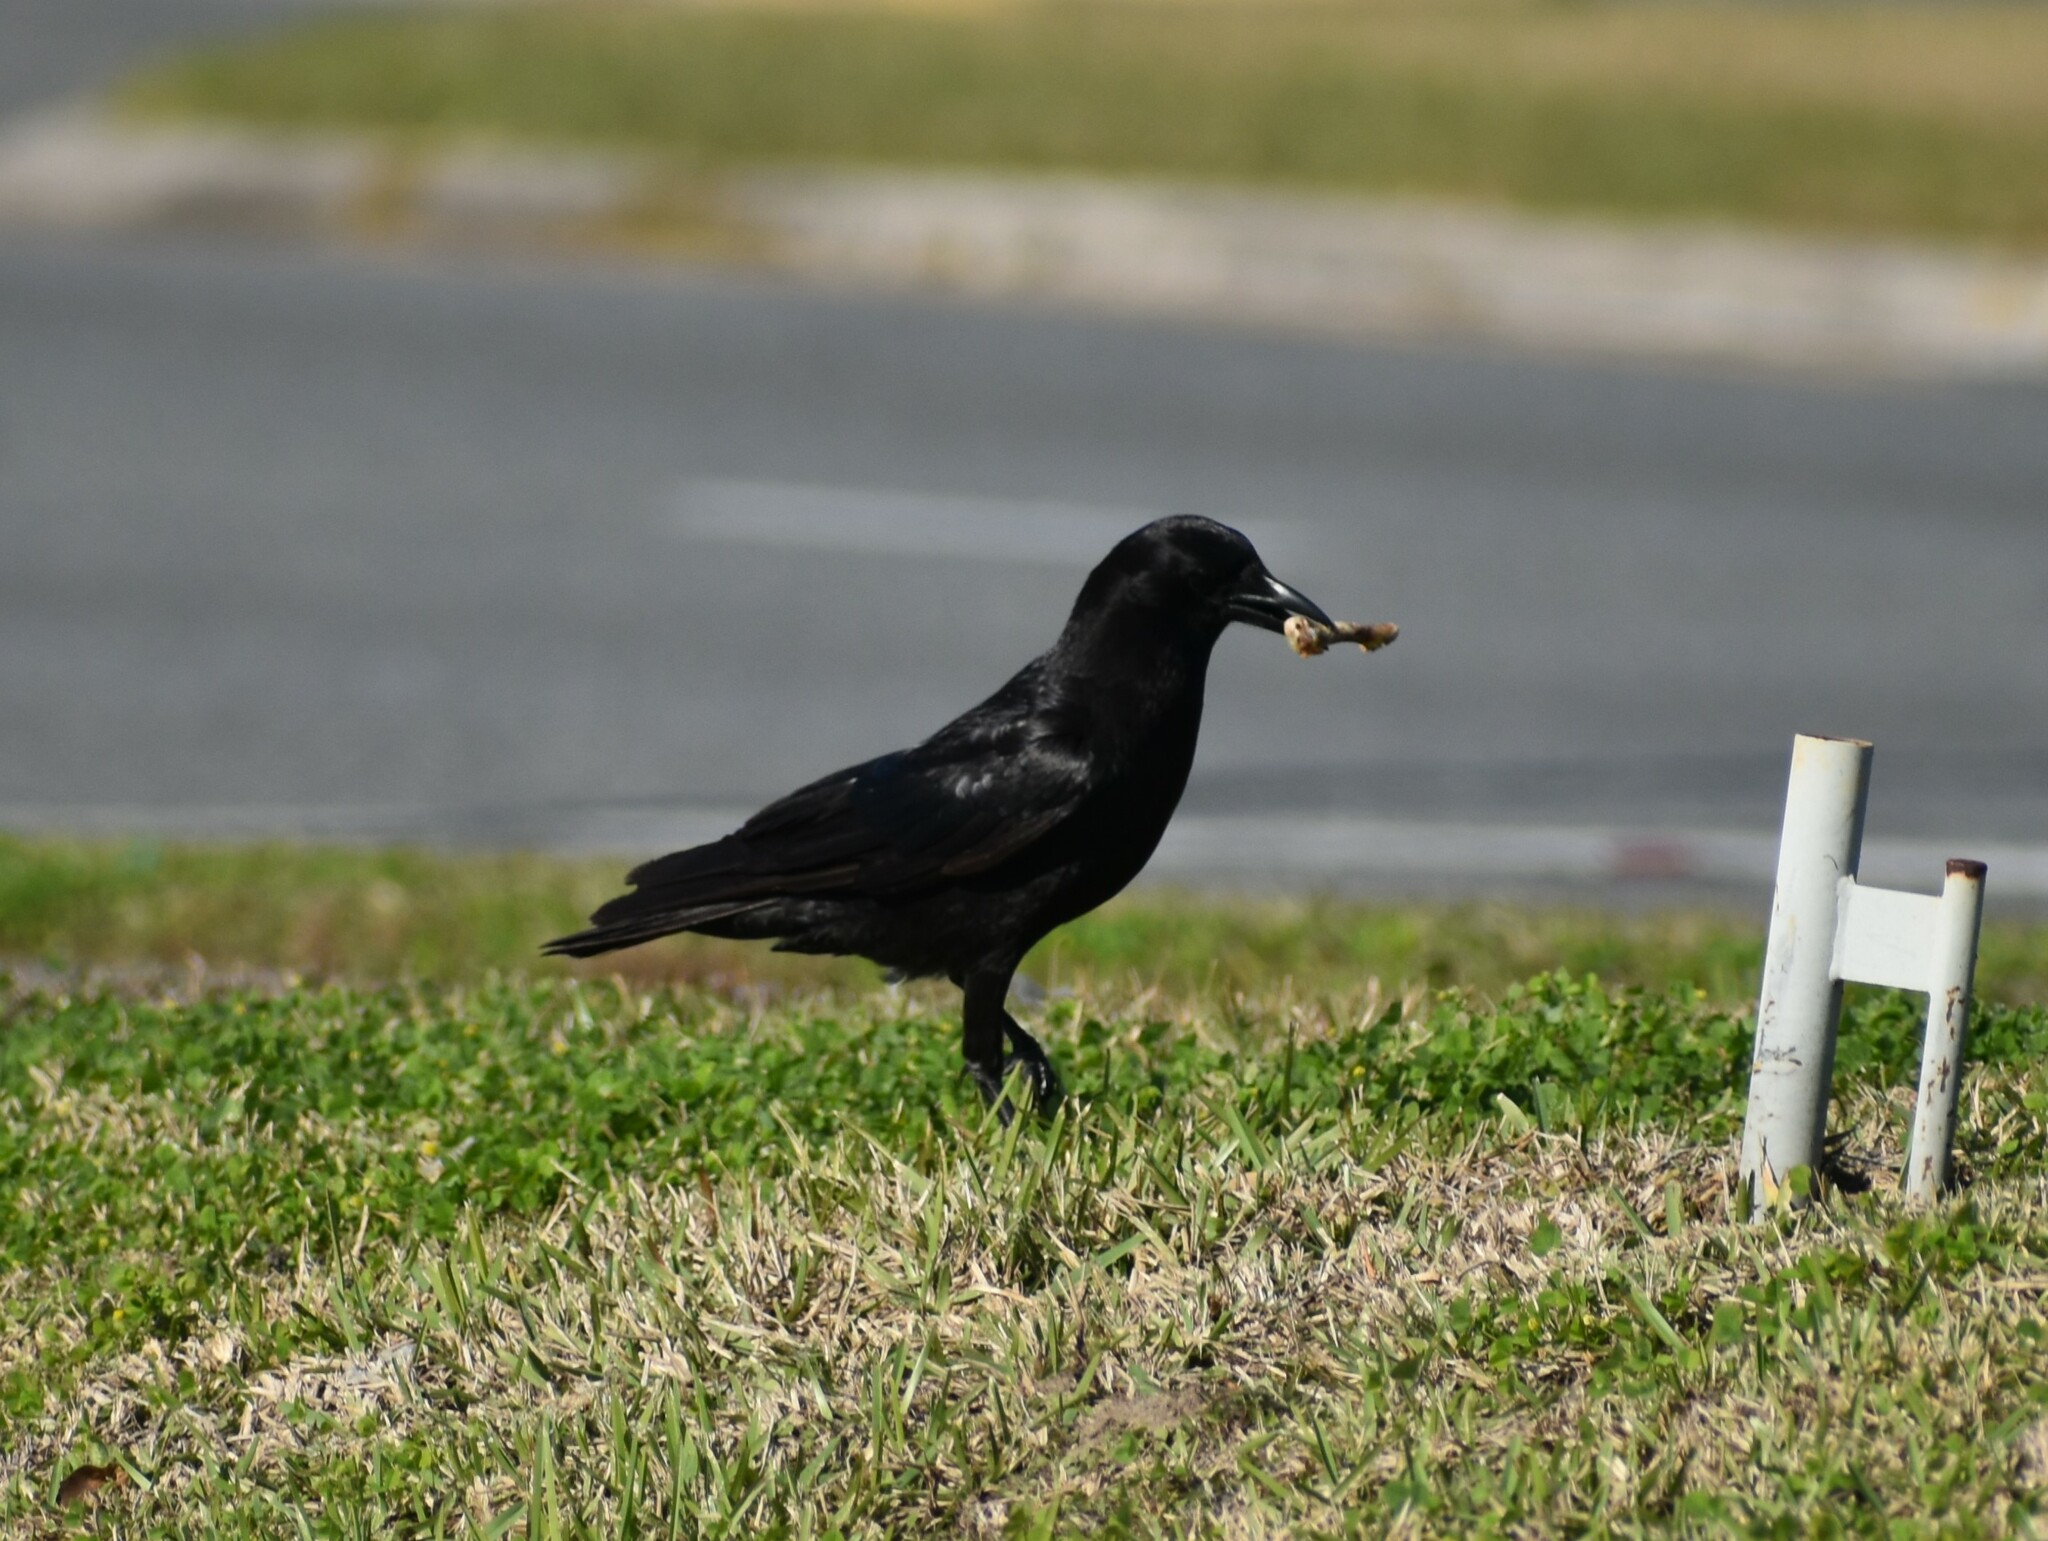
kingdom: Animalia
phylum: Chordata
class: Aves
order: Passeriformes
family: Corvidae
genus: Corvus
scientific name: Corvus brachyrhynchos
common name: American crow
